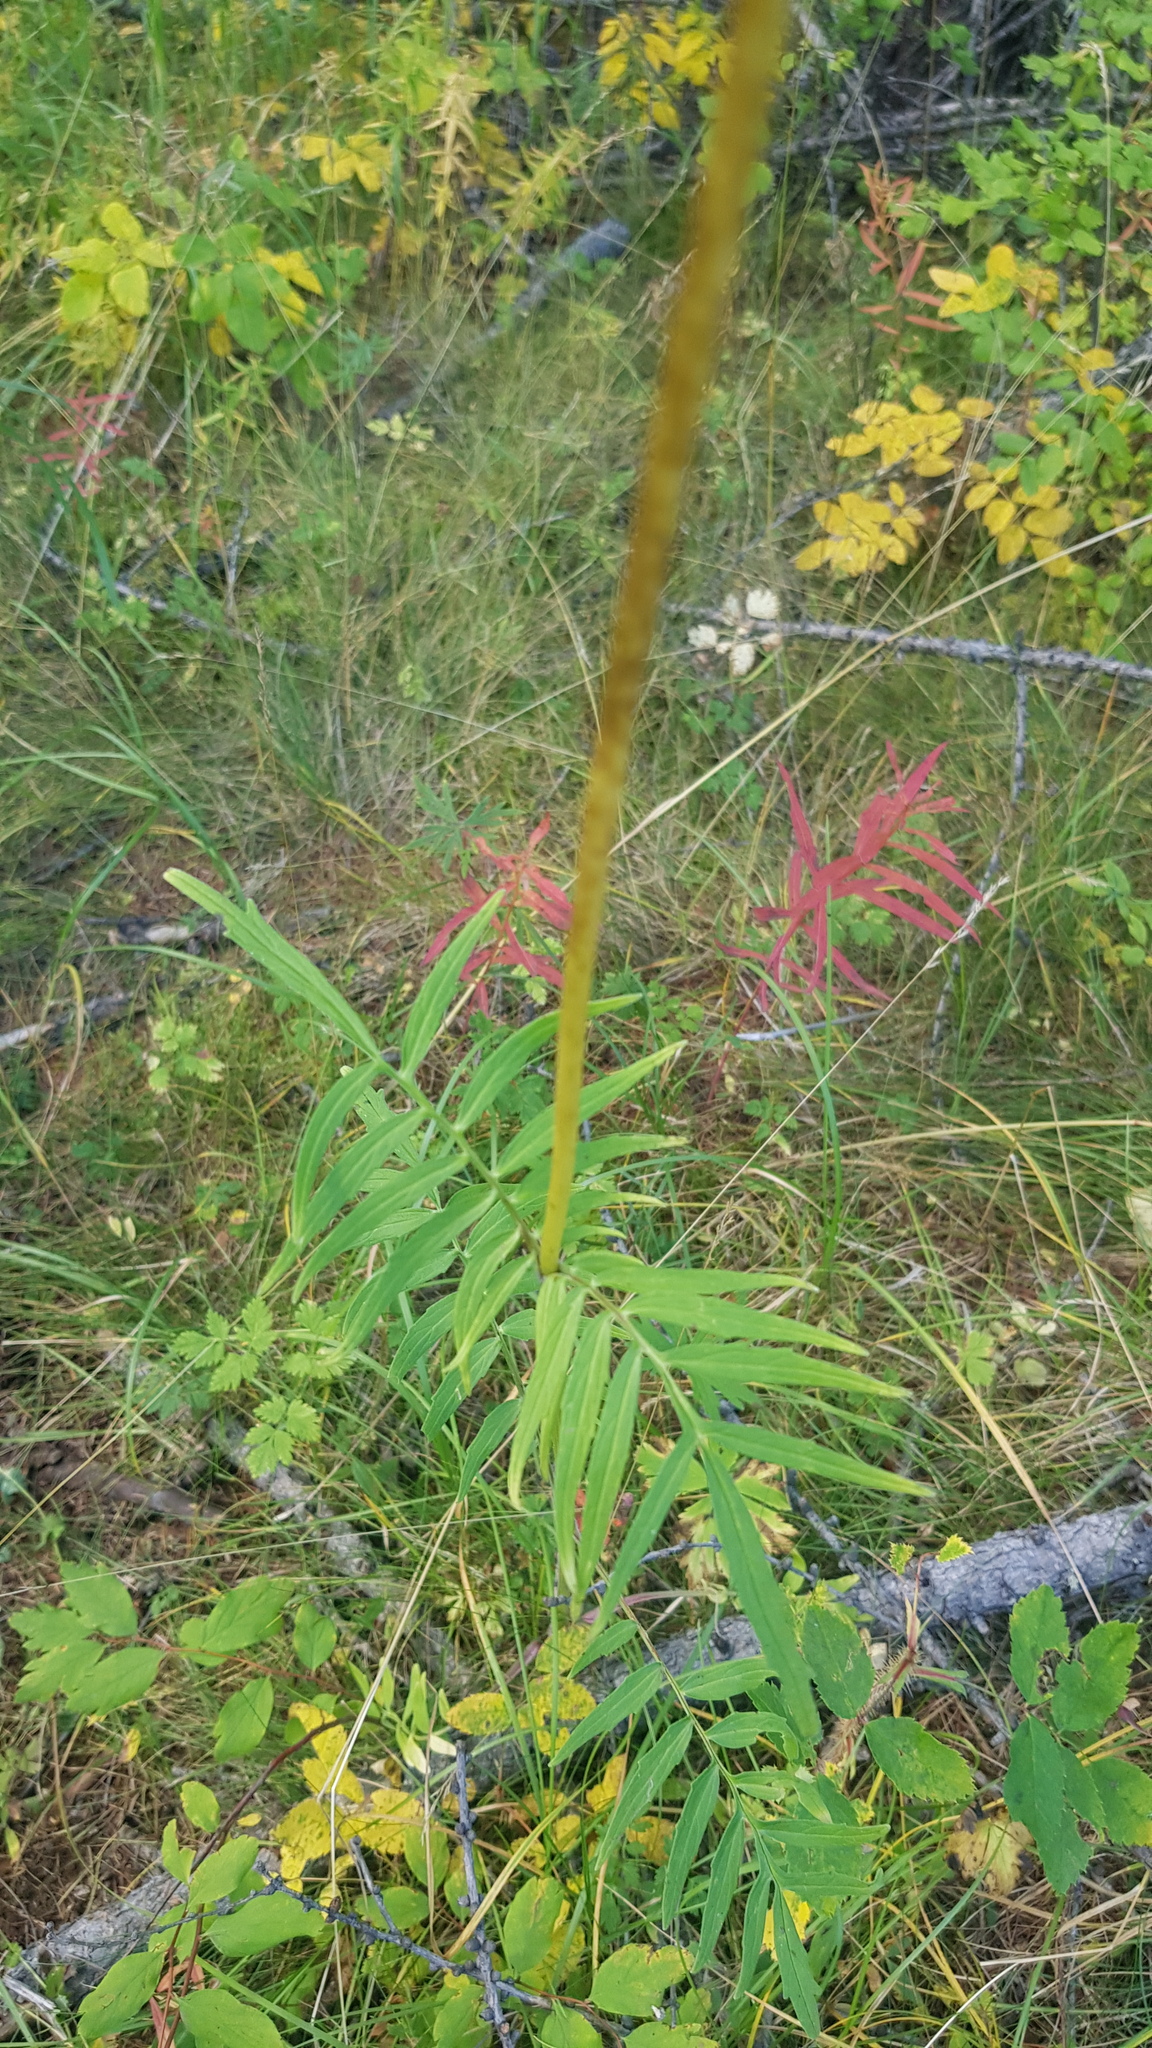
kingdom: Plantae
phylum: Tracheophyta
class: Magnoliopsida
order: Dipsacales
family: Caprifoliaceae
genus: Valeriana
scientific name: Valeriana officinalis
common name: Common valerian
